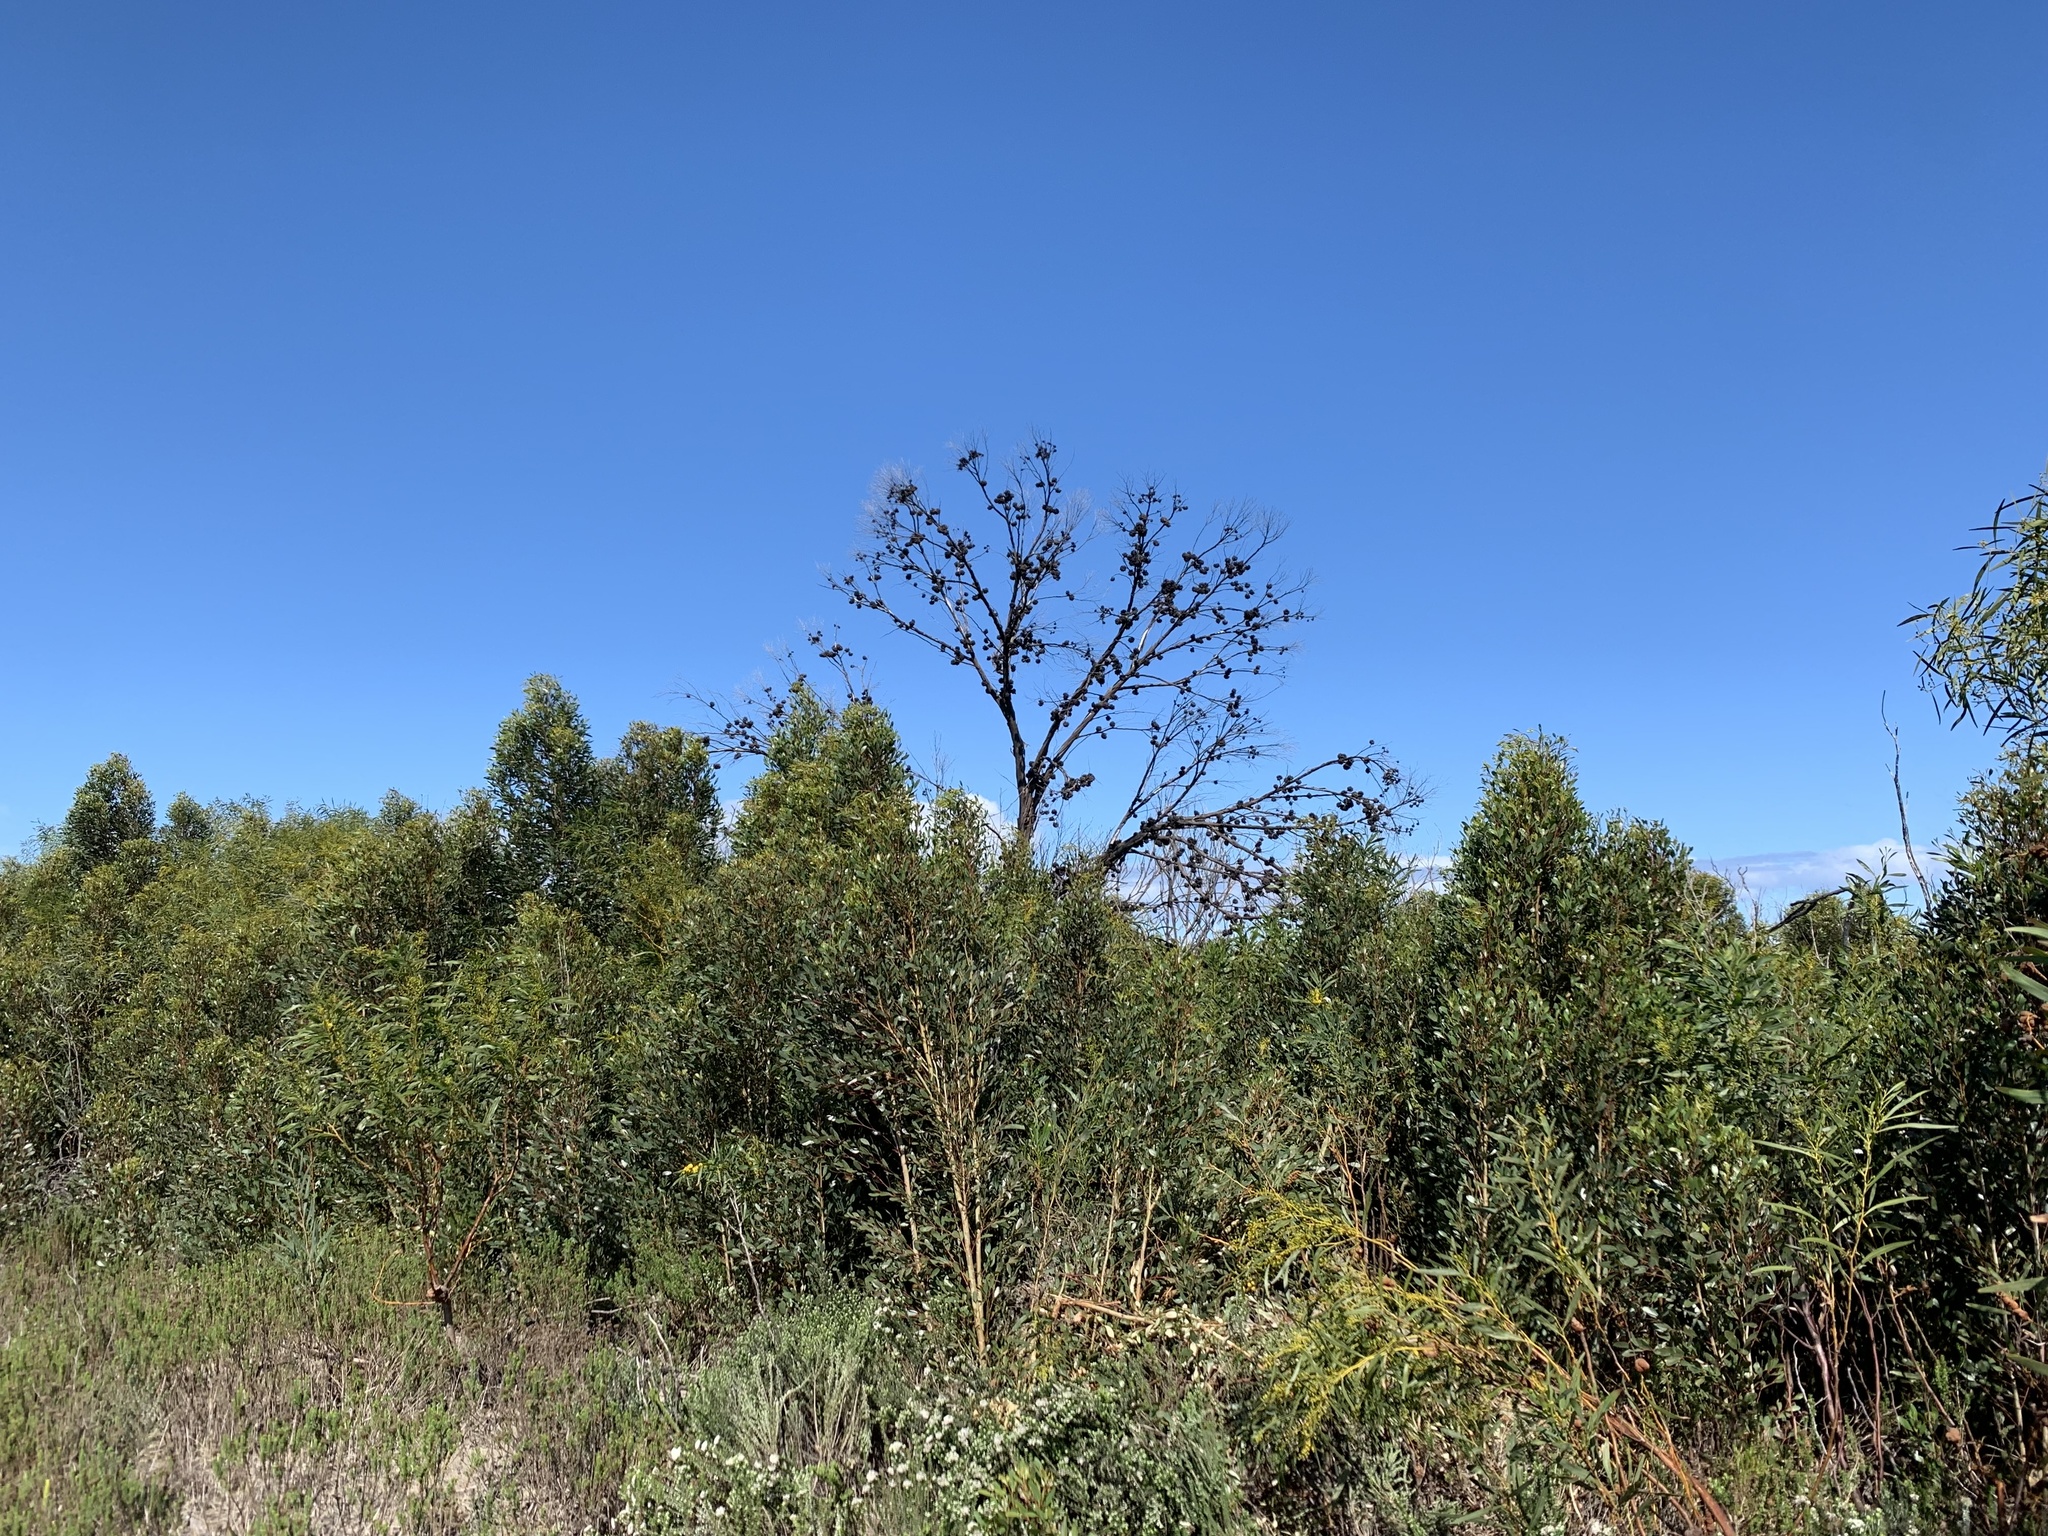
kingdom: Plantae
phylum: Tracheophyta
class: Magnoliopsida
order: Myrtales
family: Myrtaceae
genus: Eucalyptus
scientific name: Eucalyptus conferruminata
